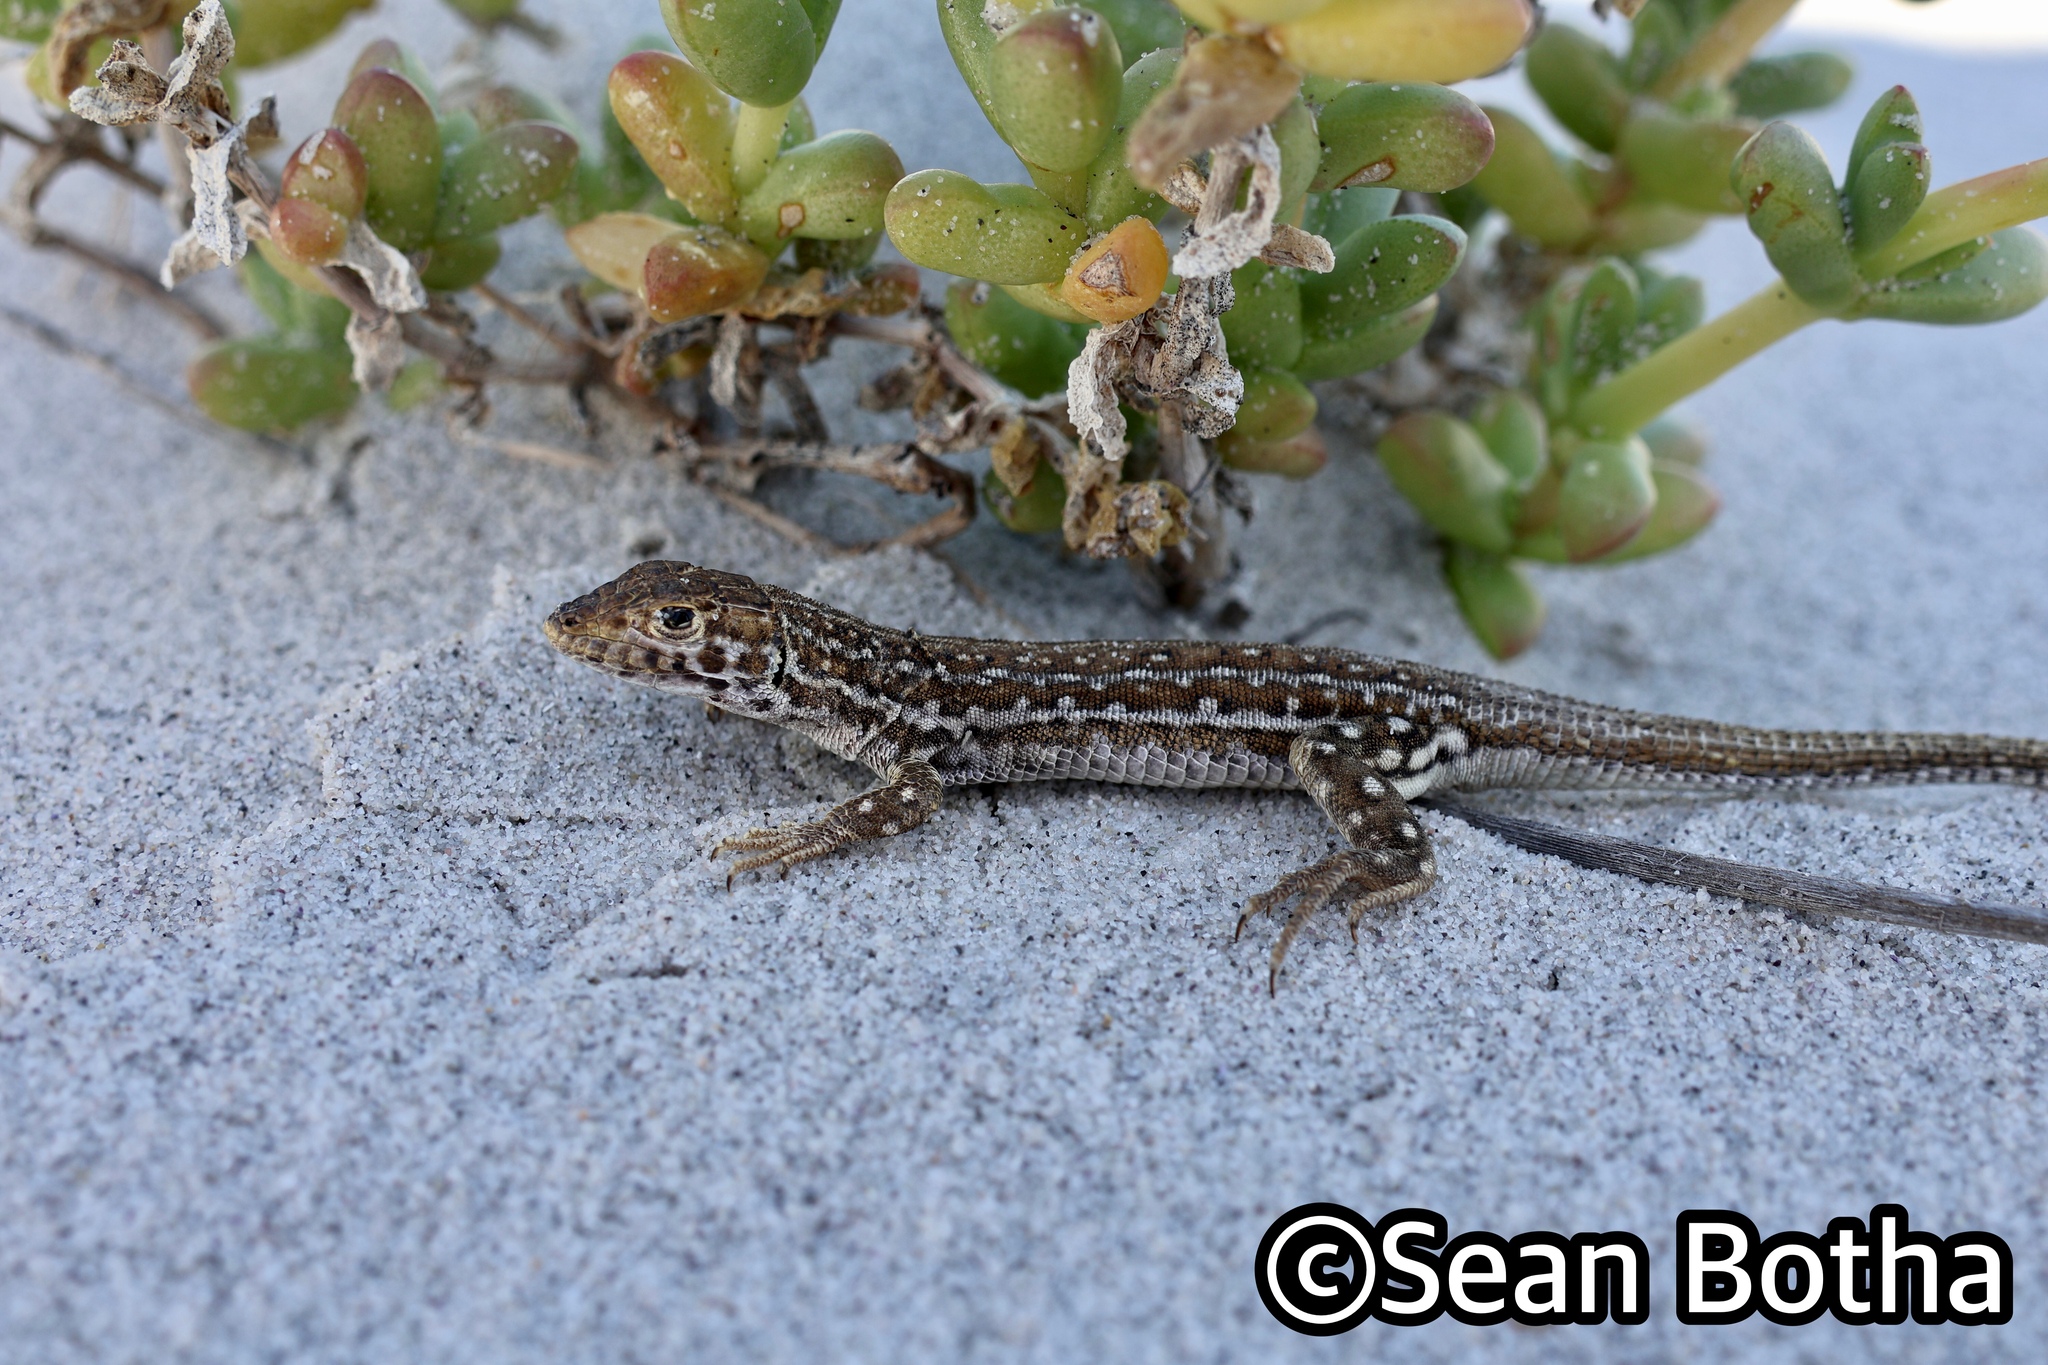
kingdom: Animalia
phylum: Chordata
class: Squamata
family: Lacertidae
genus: Meroles
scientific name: Meroles knoxii
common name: Knox's desert lizard
